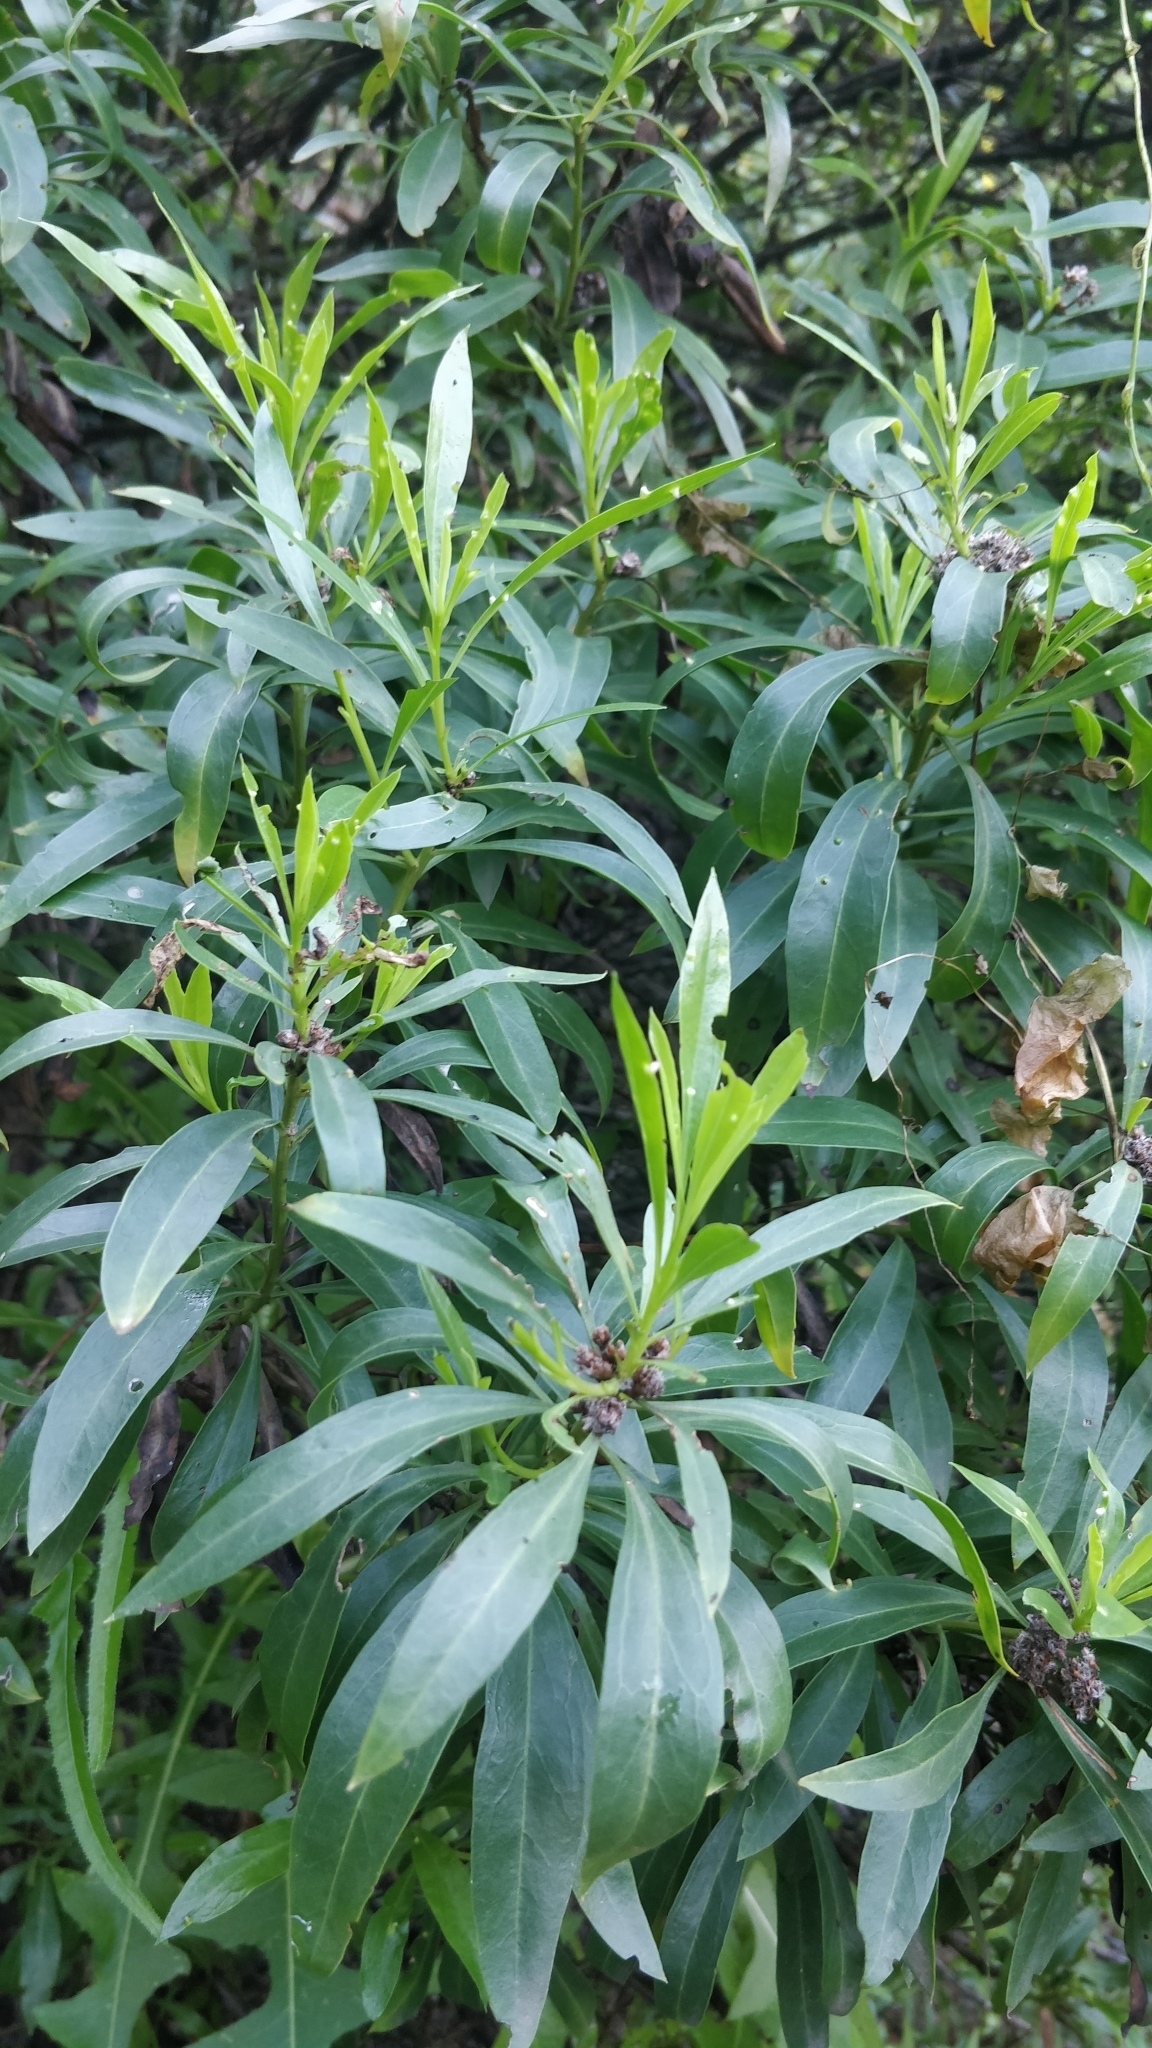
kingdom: Plantae
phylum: Tracheophyta
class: Magnoliopsida
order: Lamiales
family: Plantaginaceae
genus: Globularia
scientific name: Globularia salicina
